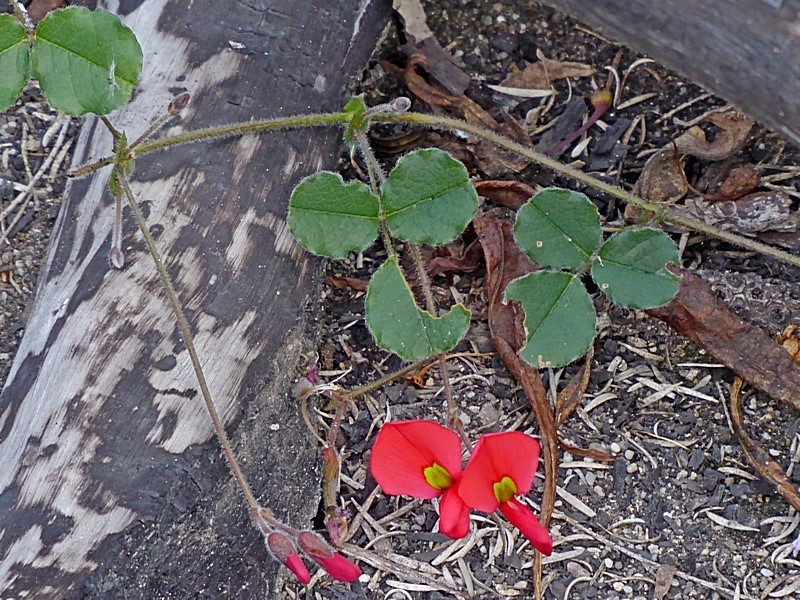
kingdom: Plantae
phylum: Tracheophyta
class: Magnoliopsida
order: Fabales
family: Fabaceae
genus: Kennedia
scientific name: Kennedia prostrata
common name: Running-postman
